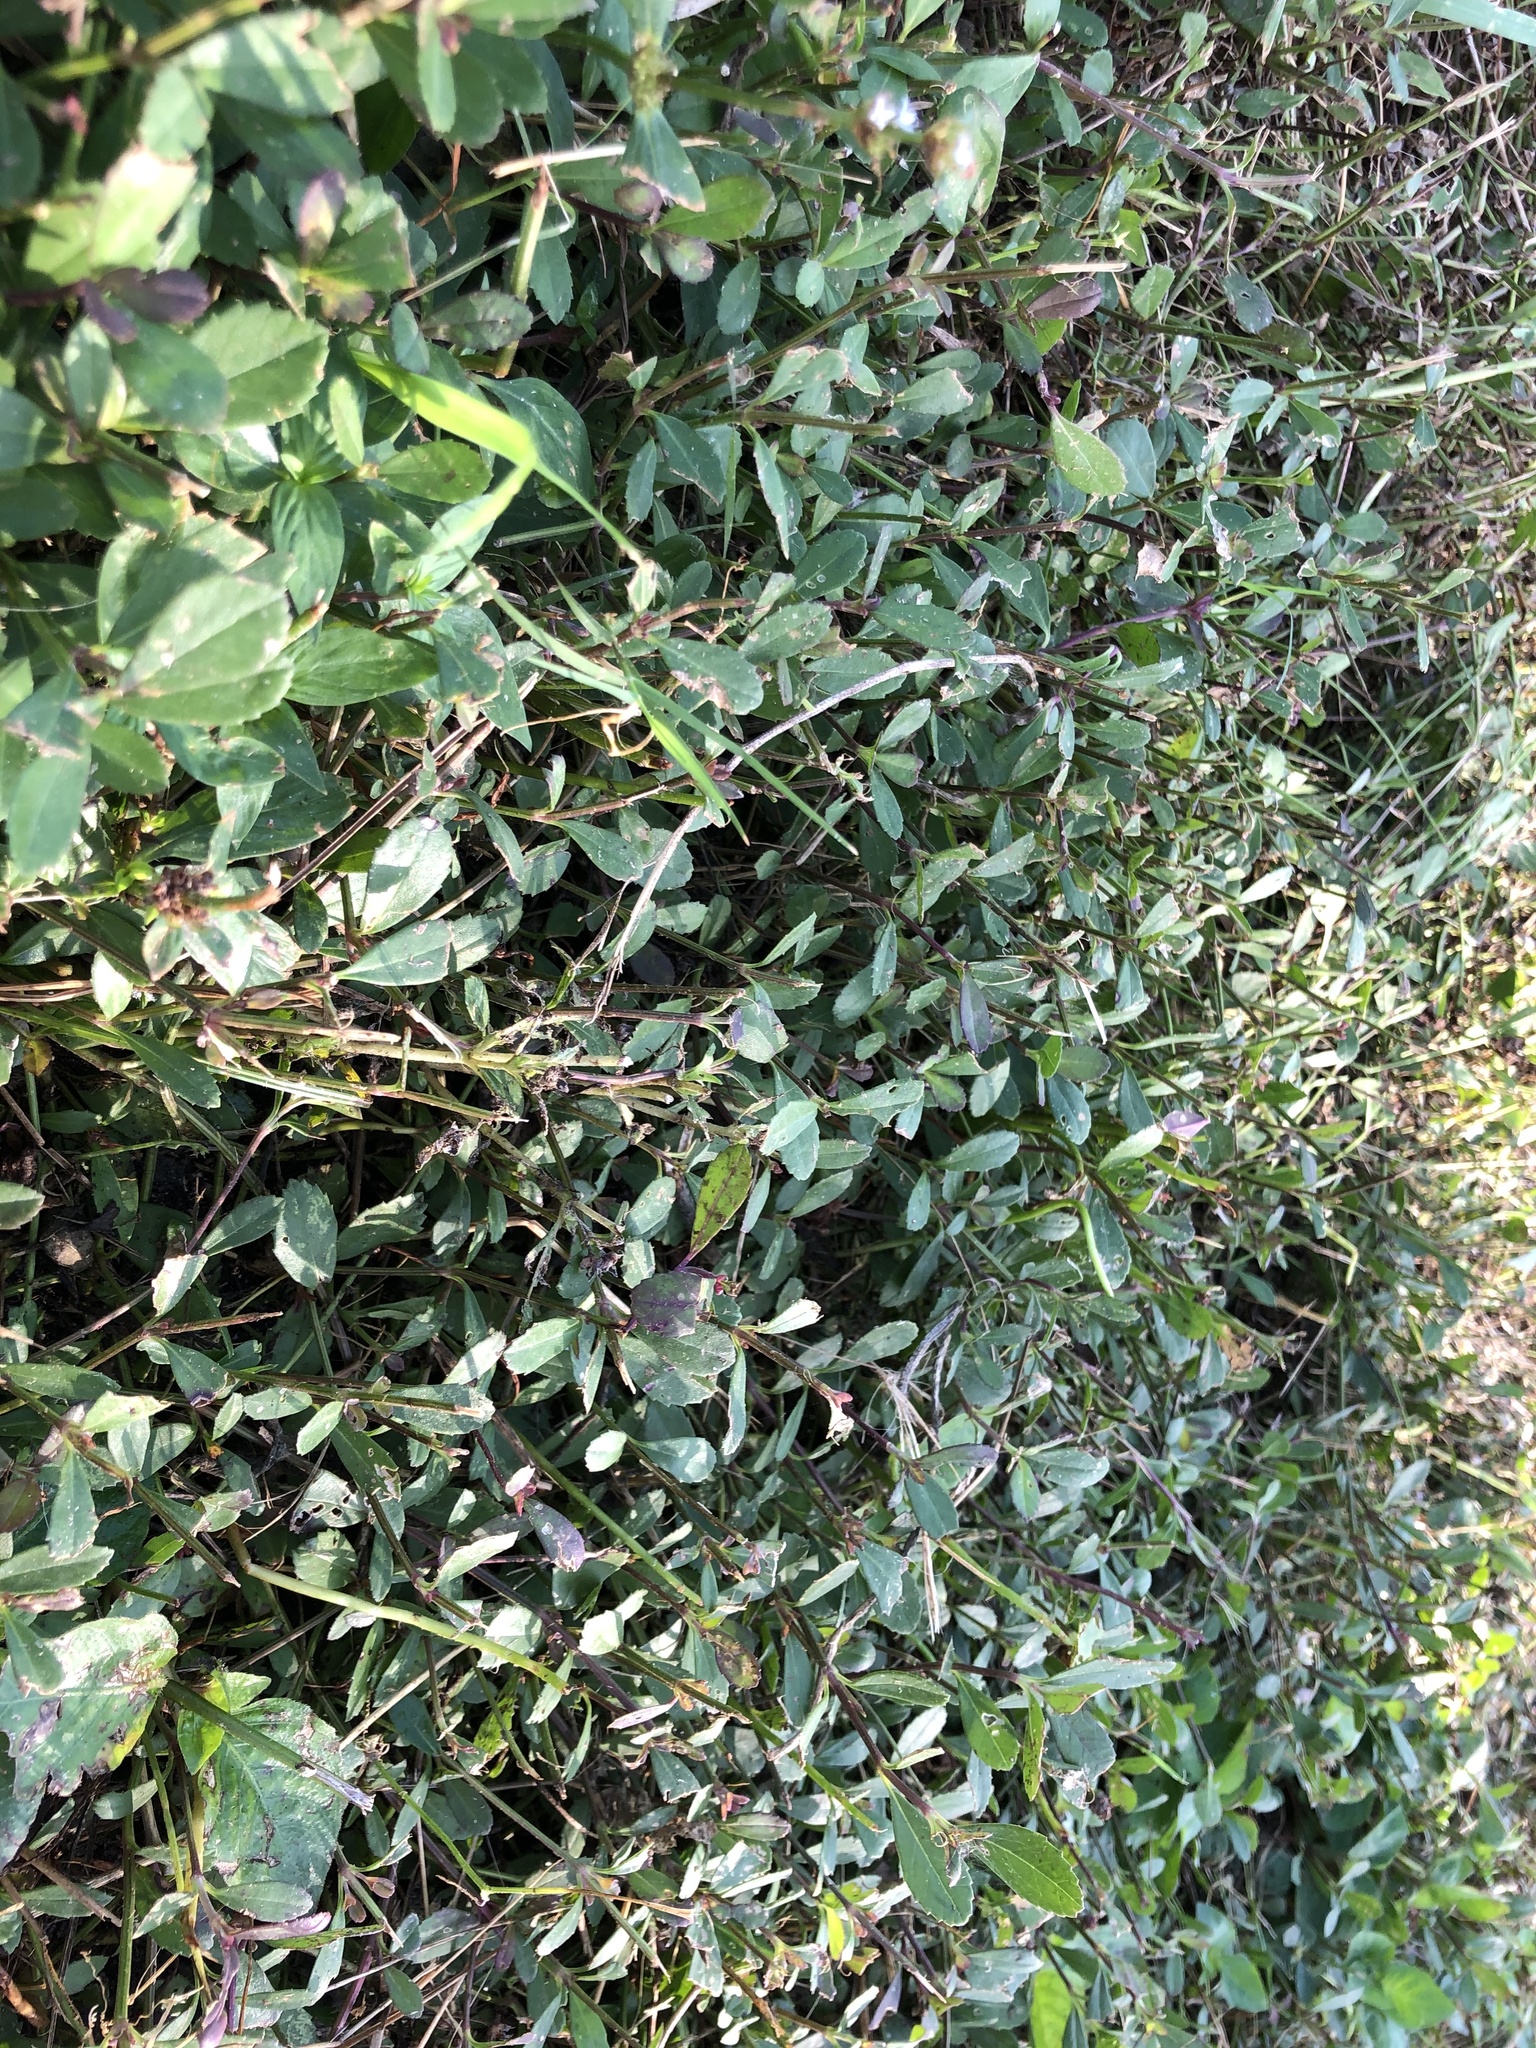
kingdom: Plantae
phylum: Tracheophyta
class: Magnoliopsida
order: Gentianales
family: Rubiaceae
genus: Spermacoce
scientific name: Spermacoce remota
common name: Woodland false buttonweed
